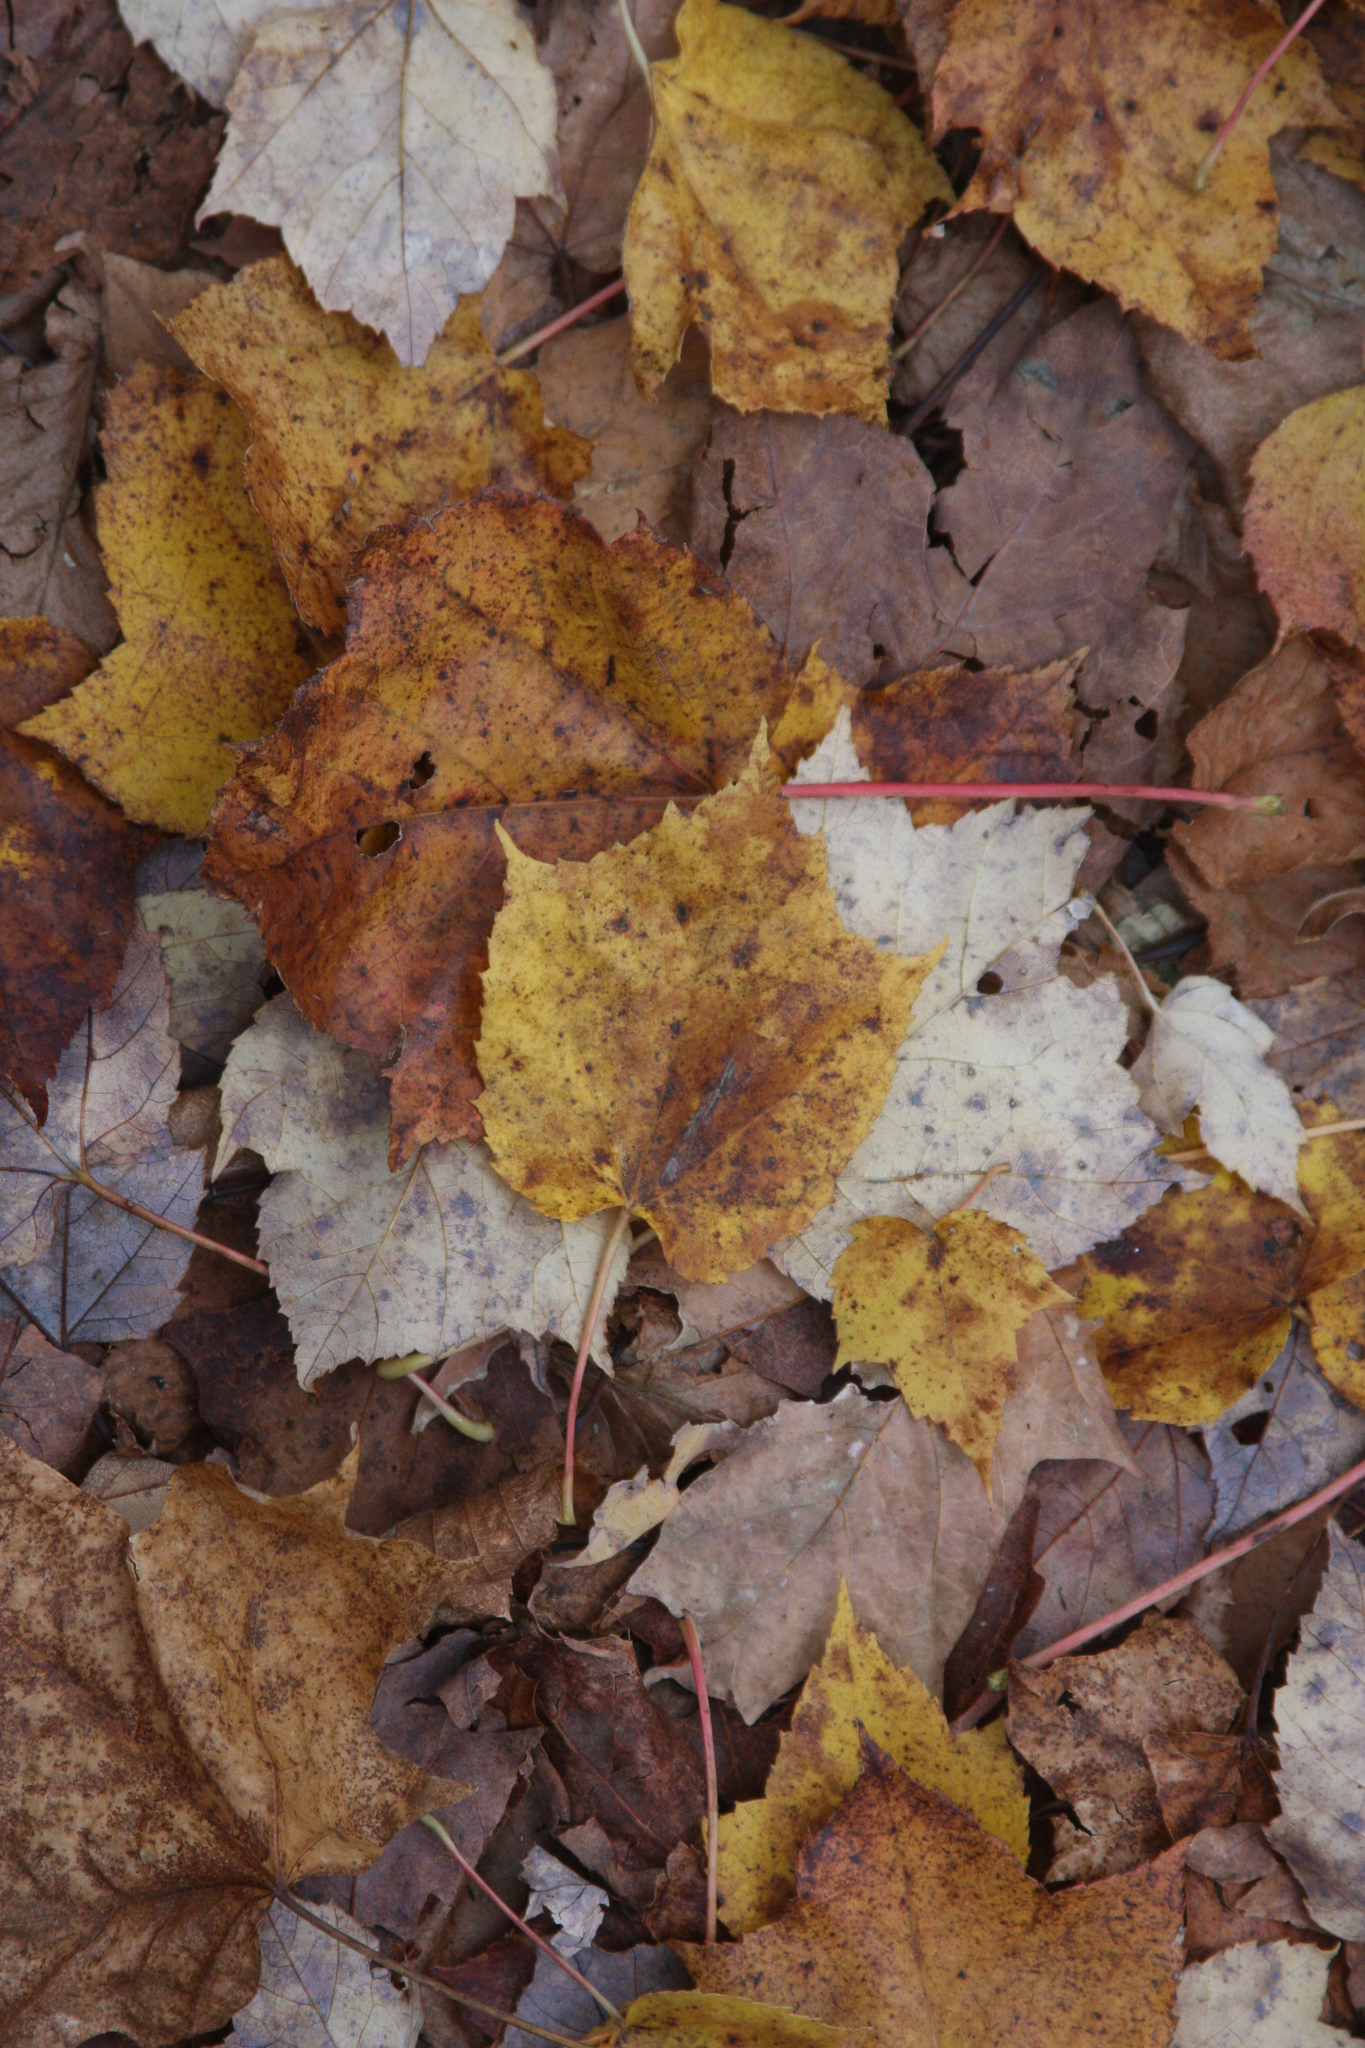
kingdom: Plantae
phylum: Tracheophyta
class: Magnoliopsida
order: Sapindales
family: Sapindaceae
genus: Acer
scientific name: Acer rubrum
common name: Red maple
